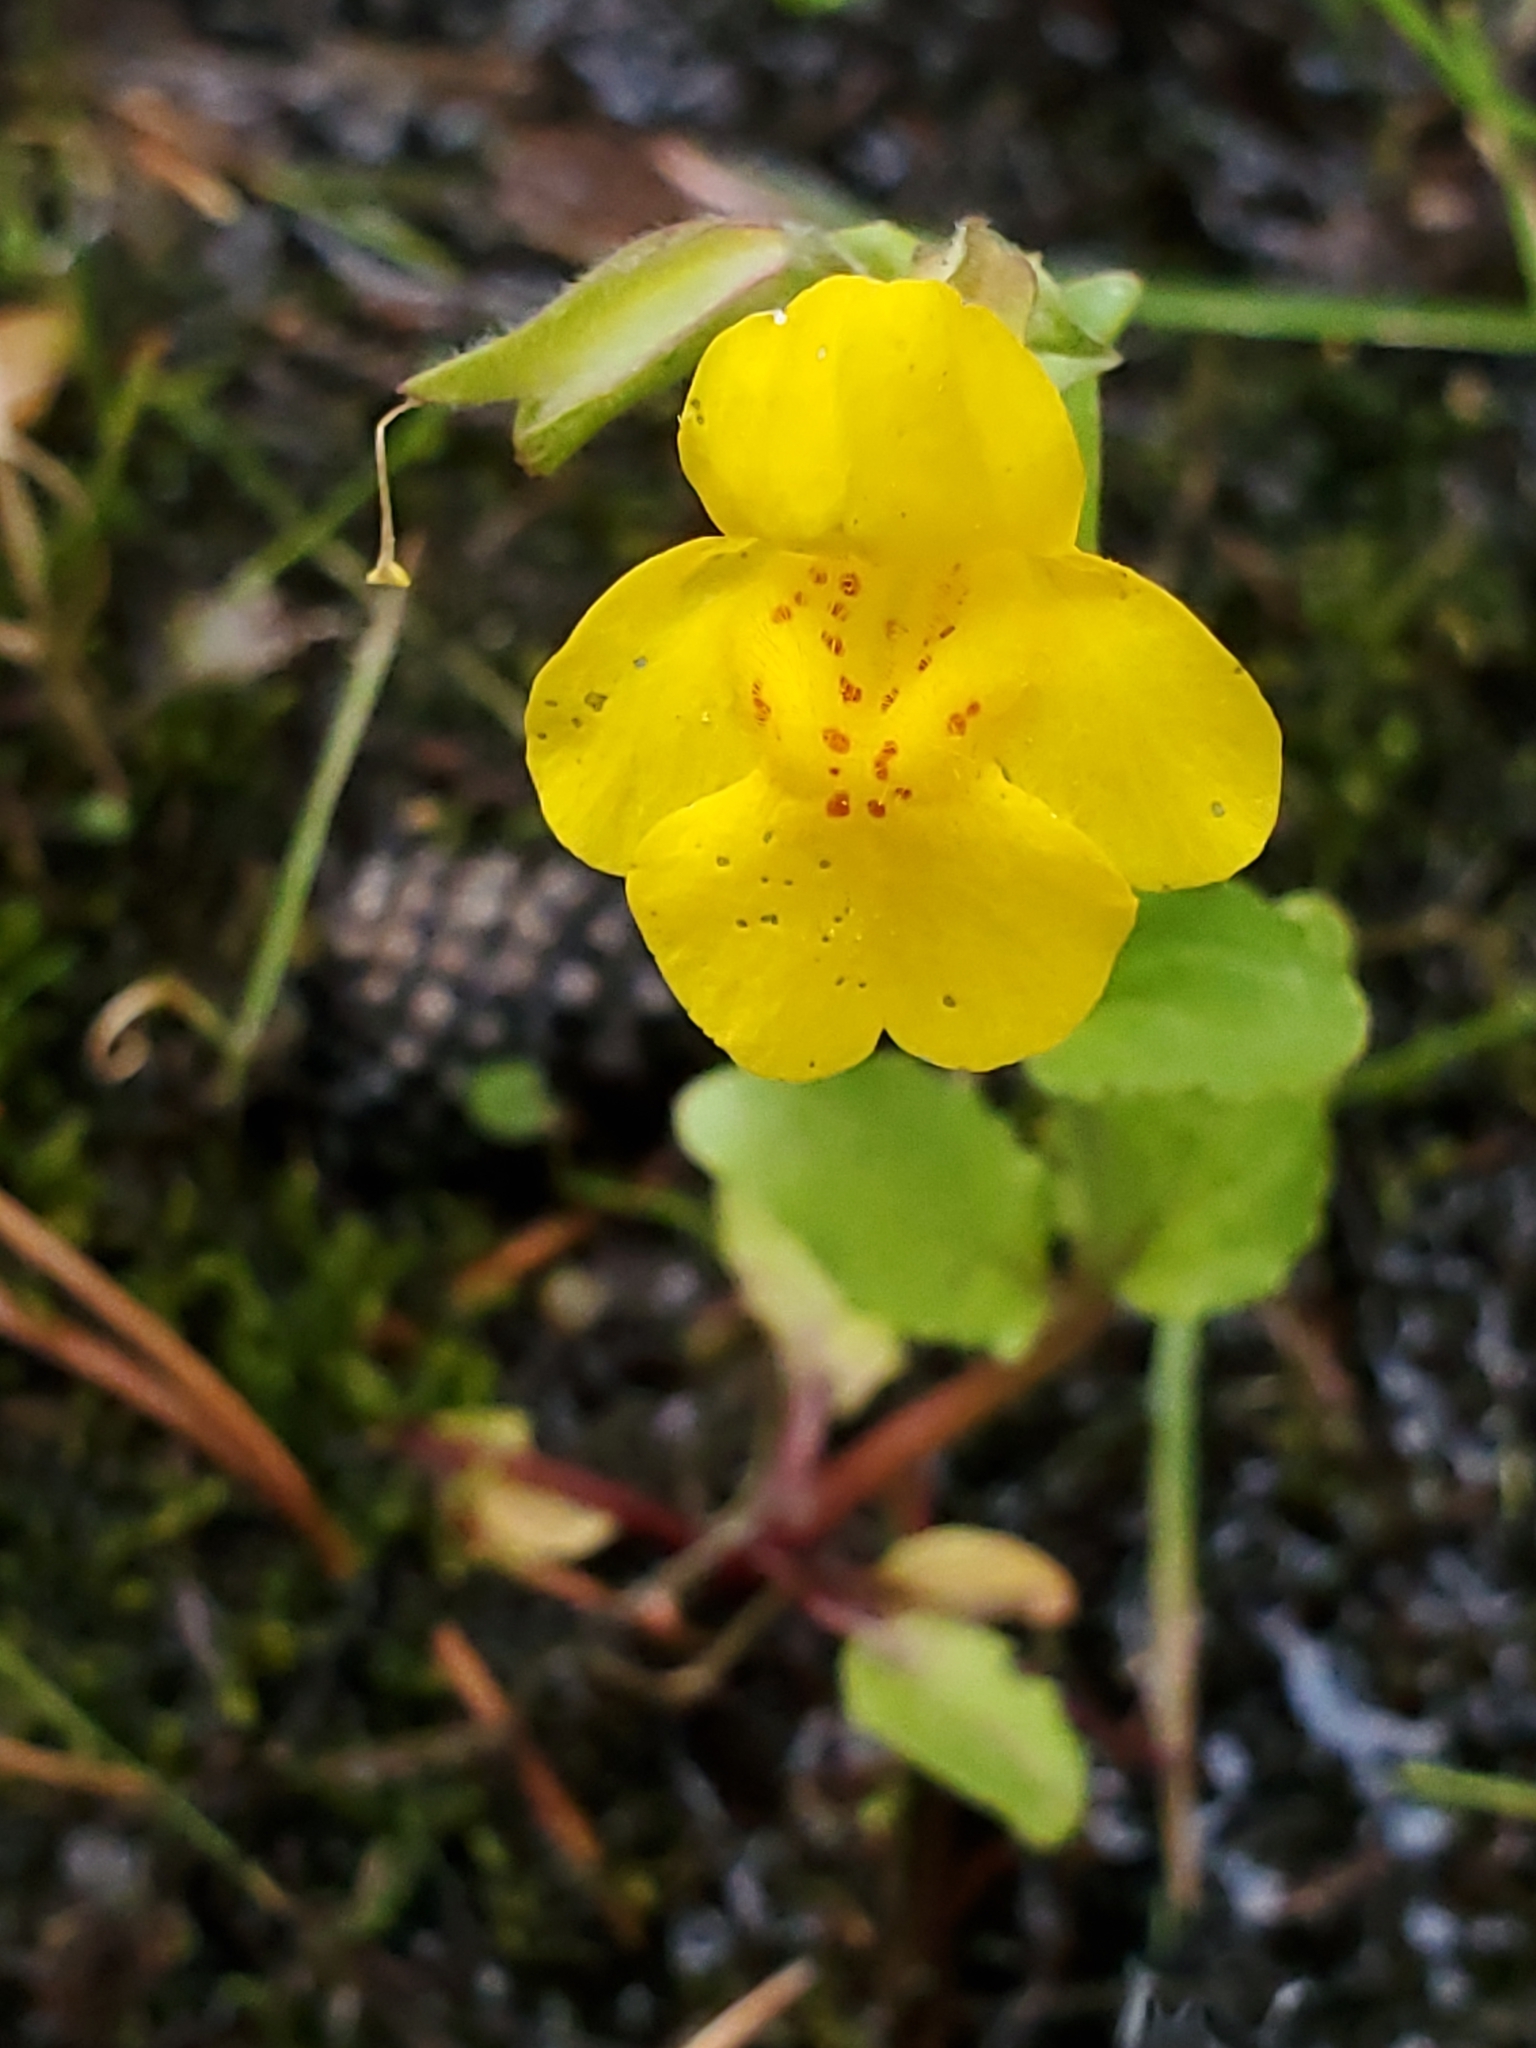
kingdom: Plantae
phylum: Tracheophyta
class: Magnoliopsida
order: Lamiales
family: Phrymaceae
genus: Erythranthe
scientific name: Erythranthe guttata
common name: Monkeyflower
